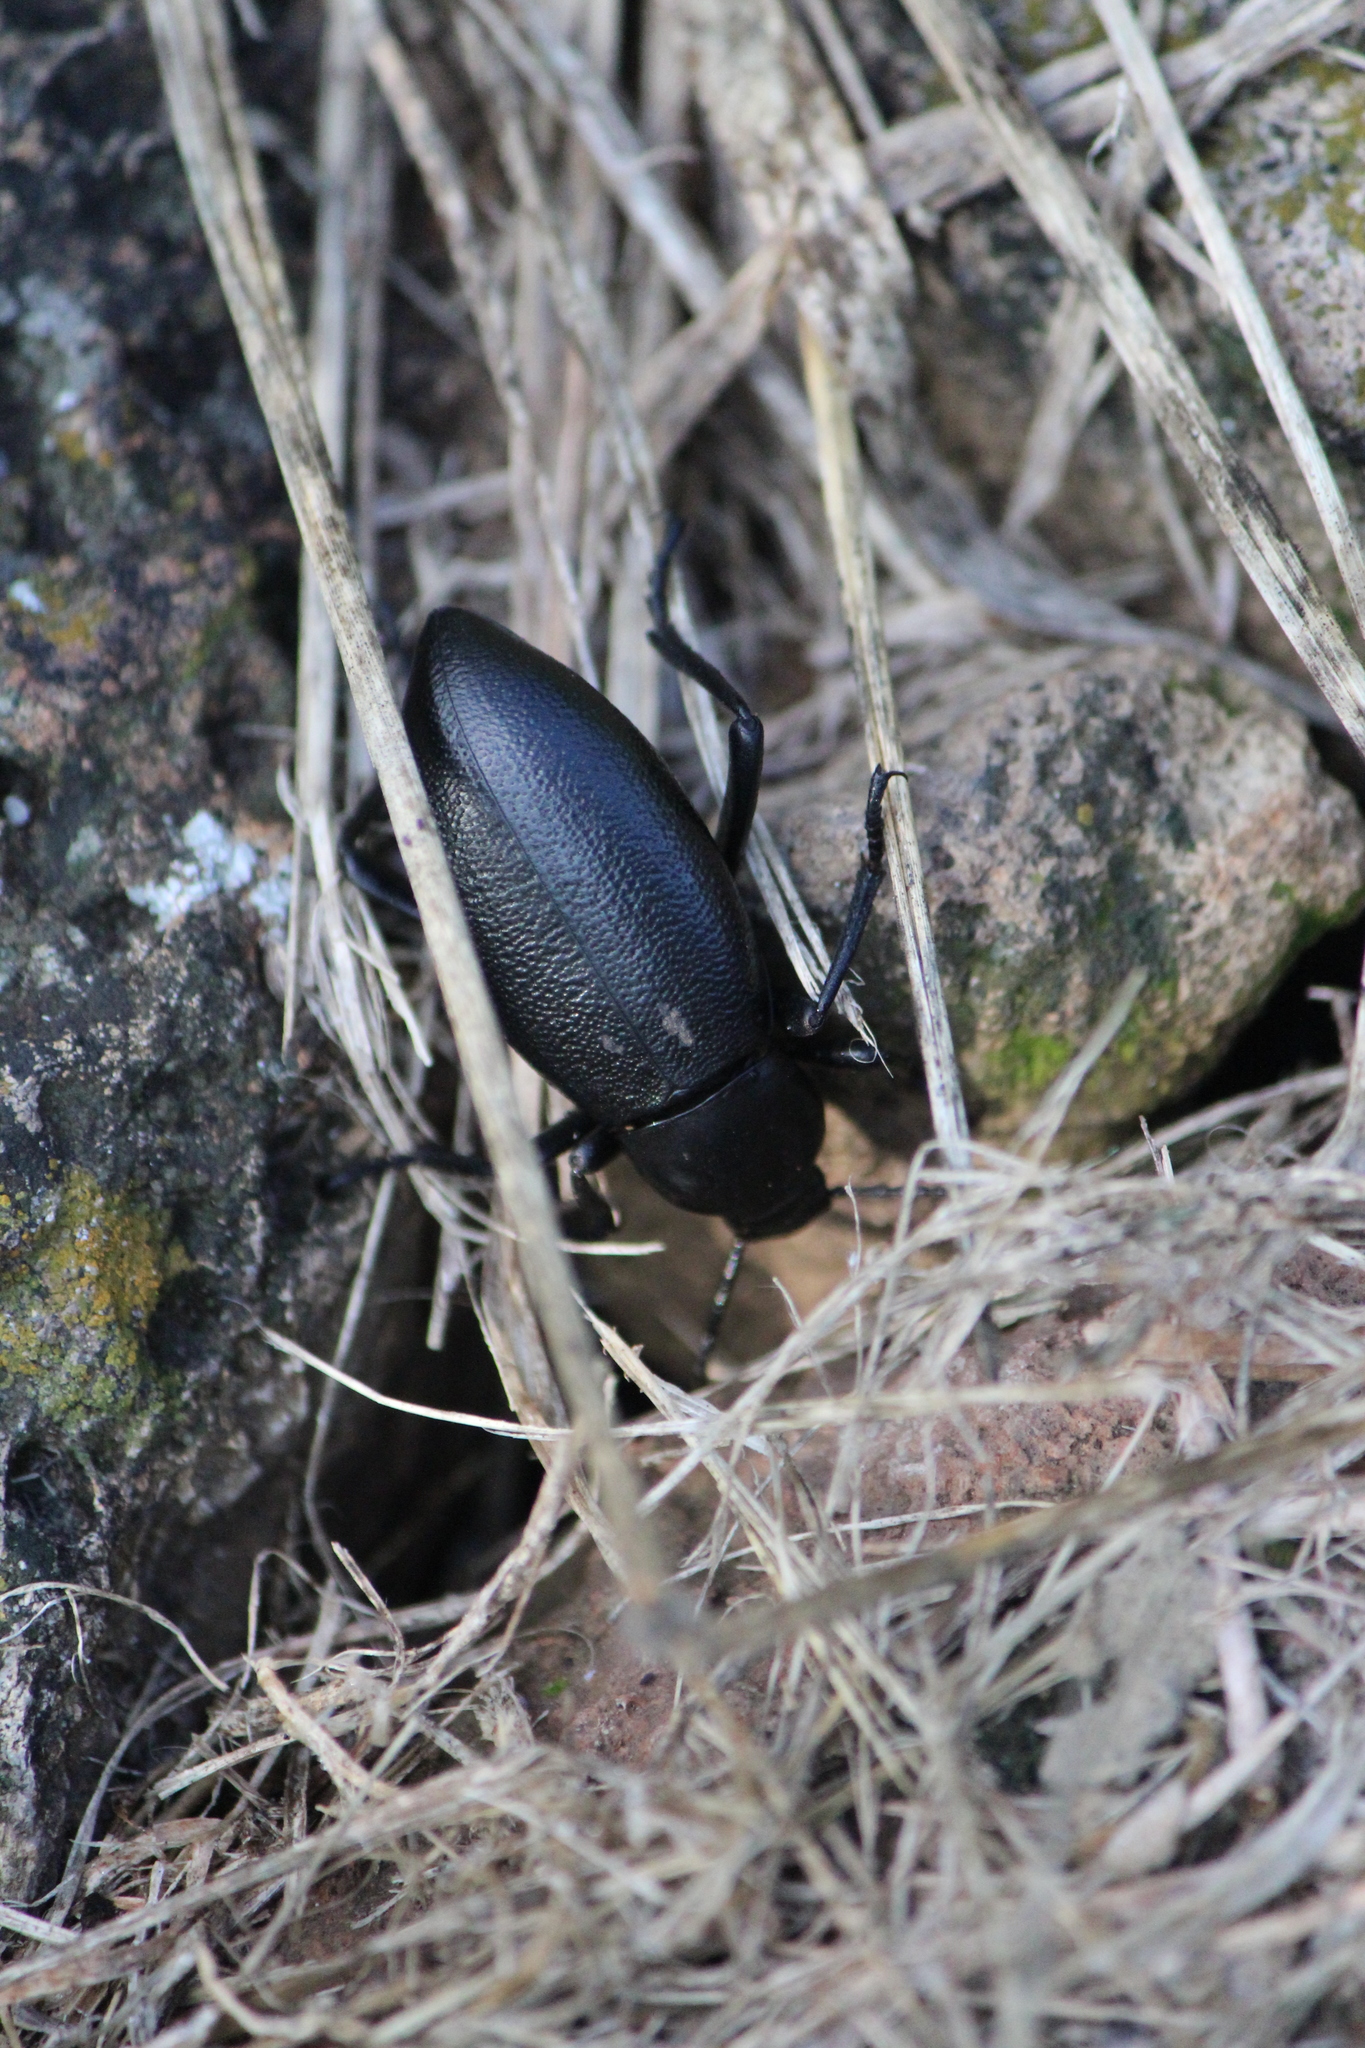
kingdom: Animalia
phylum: Arthropoda
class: Insecta
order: Coleoptera
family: Tenebrionidae
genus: Eleodes
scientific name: Eleodes glabricollis
